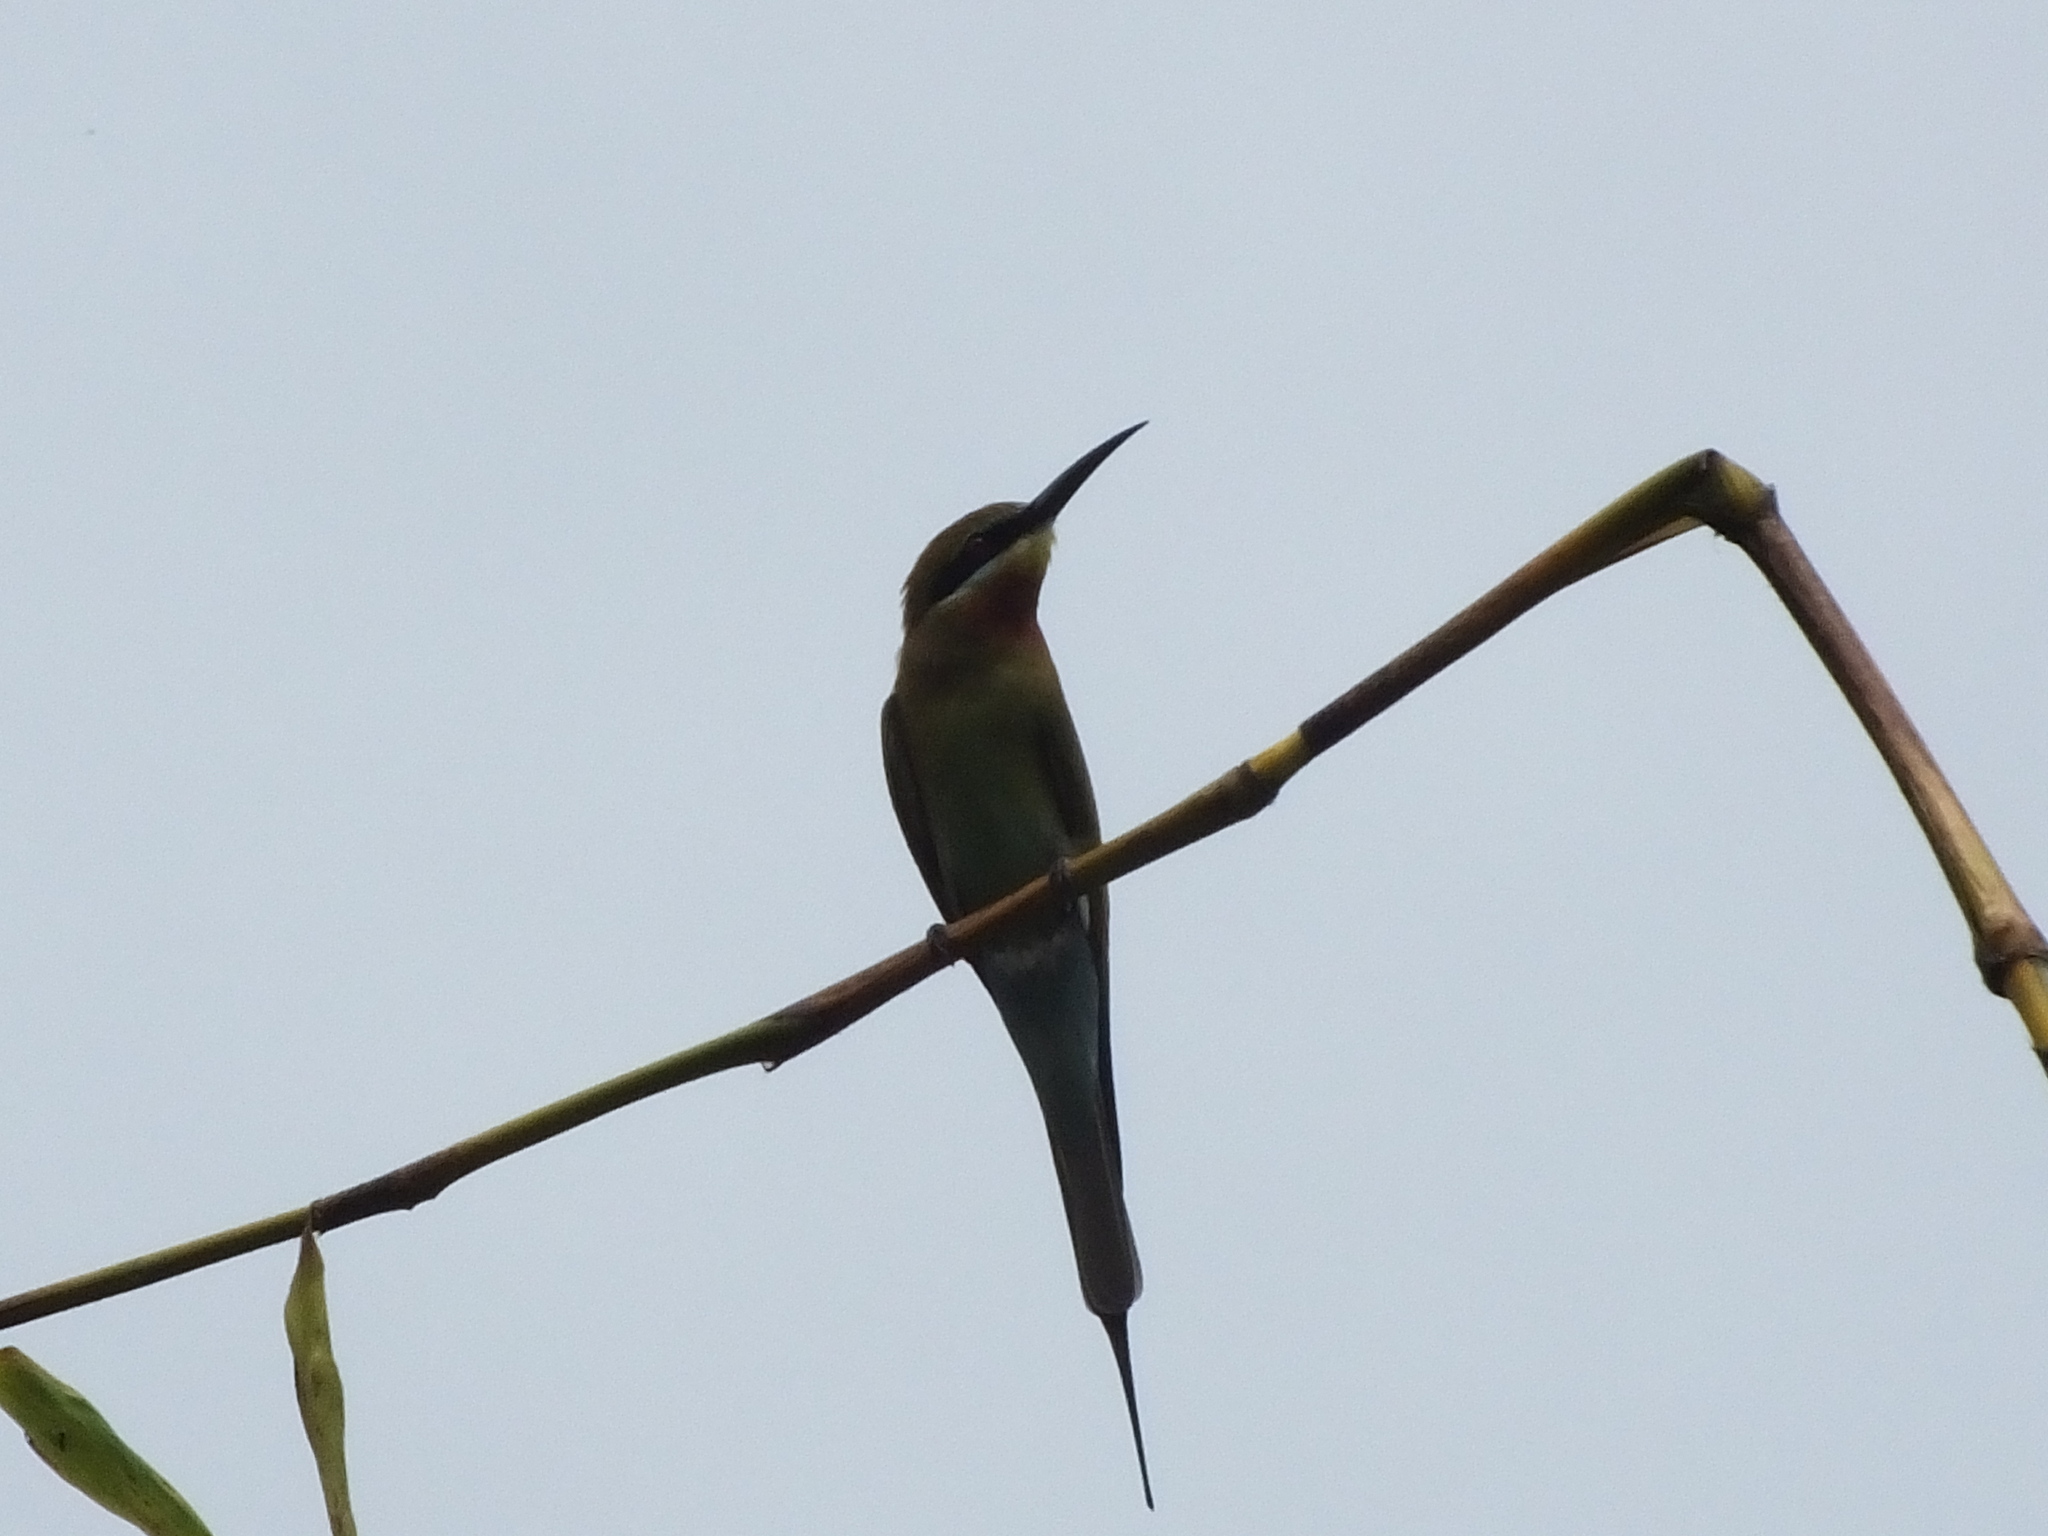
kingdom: Animalia
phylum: Chordata
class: Aves
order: Coraciiformes
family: Meropidae
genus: Merops
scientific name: Merops philippinus
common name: Blue-tailed bee-eater
